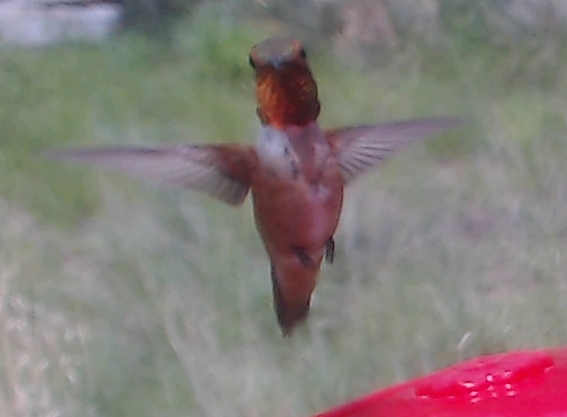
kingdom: Animalia
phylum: Chordata
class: Aves
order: Apodiformes
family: Trochilidae
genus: Selasphorus
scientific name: Selasphorus rufus
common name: Rufous hummingbird
